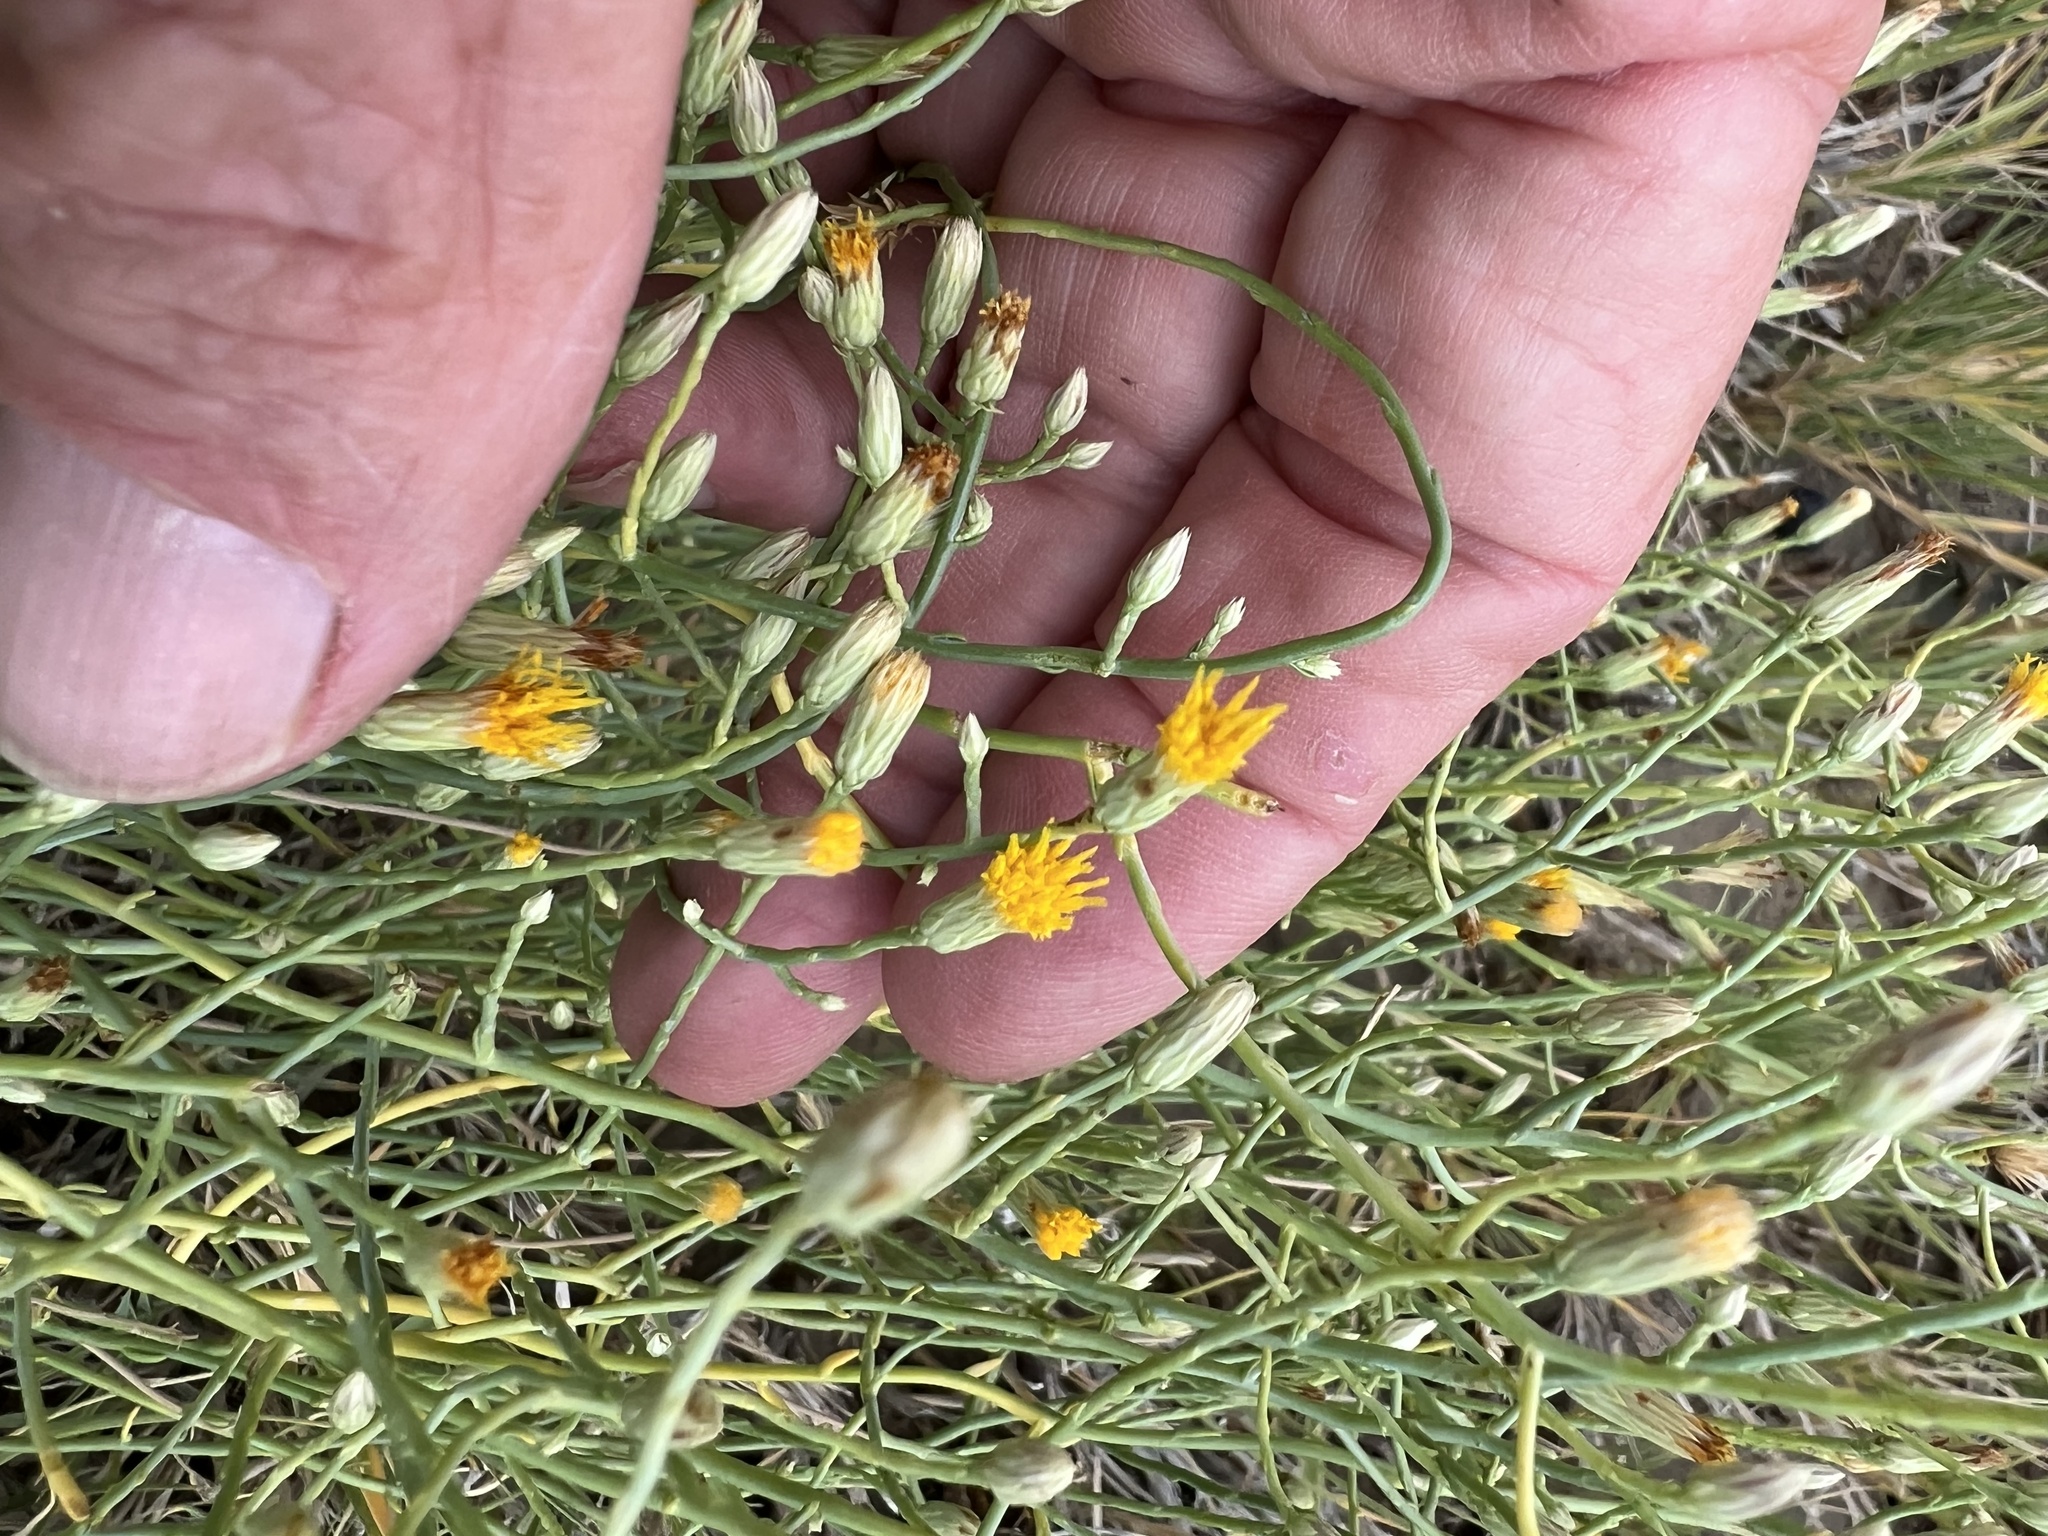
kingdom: Plantae
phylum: Tracheophyta
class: Magnoliopsida
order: Asterales
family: Asteraceae
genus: Leucosyris
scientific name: Leucosyris carnosa
